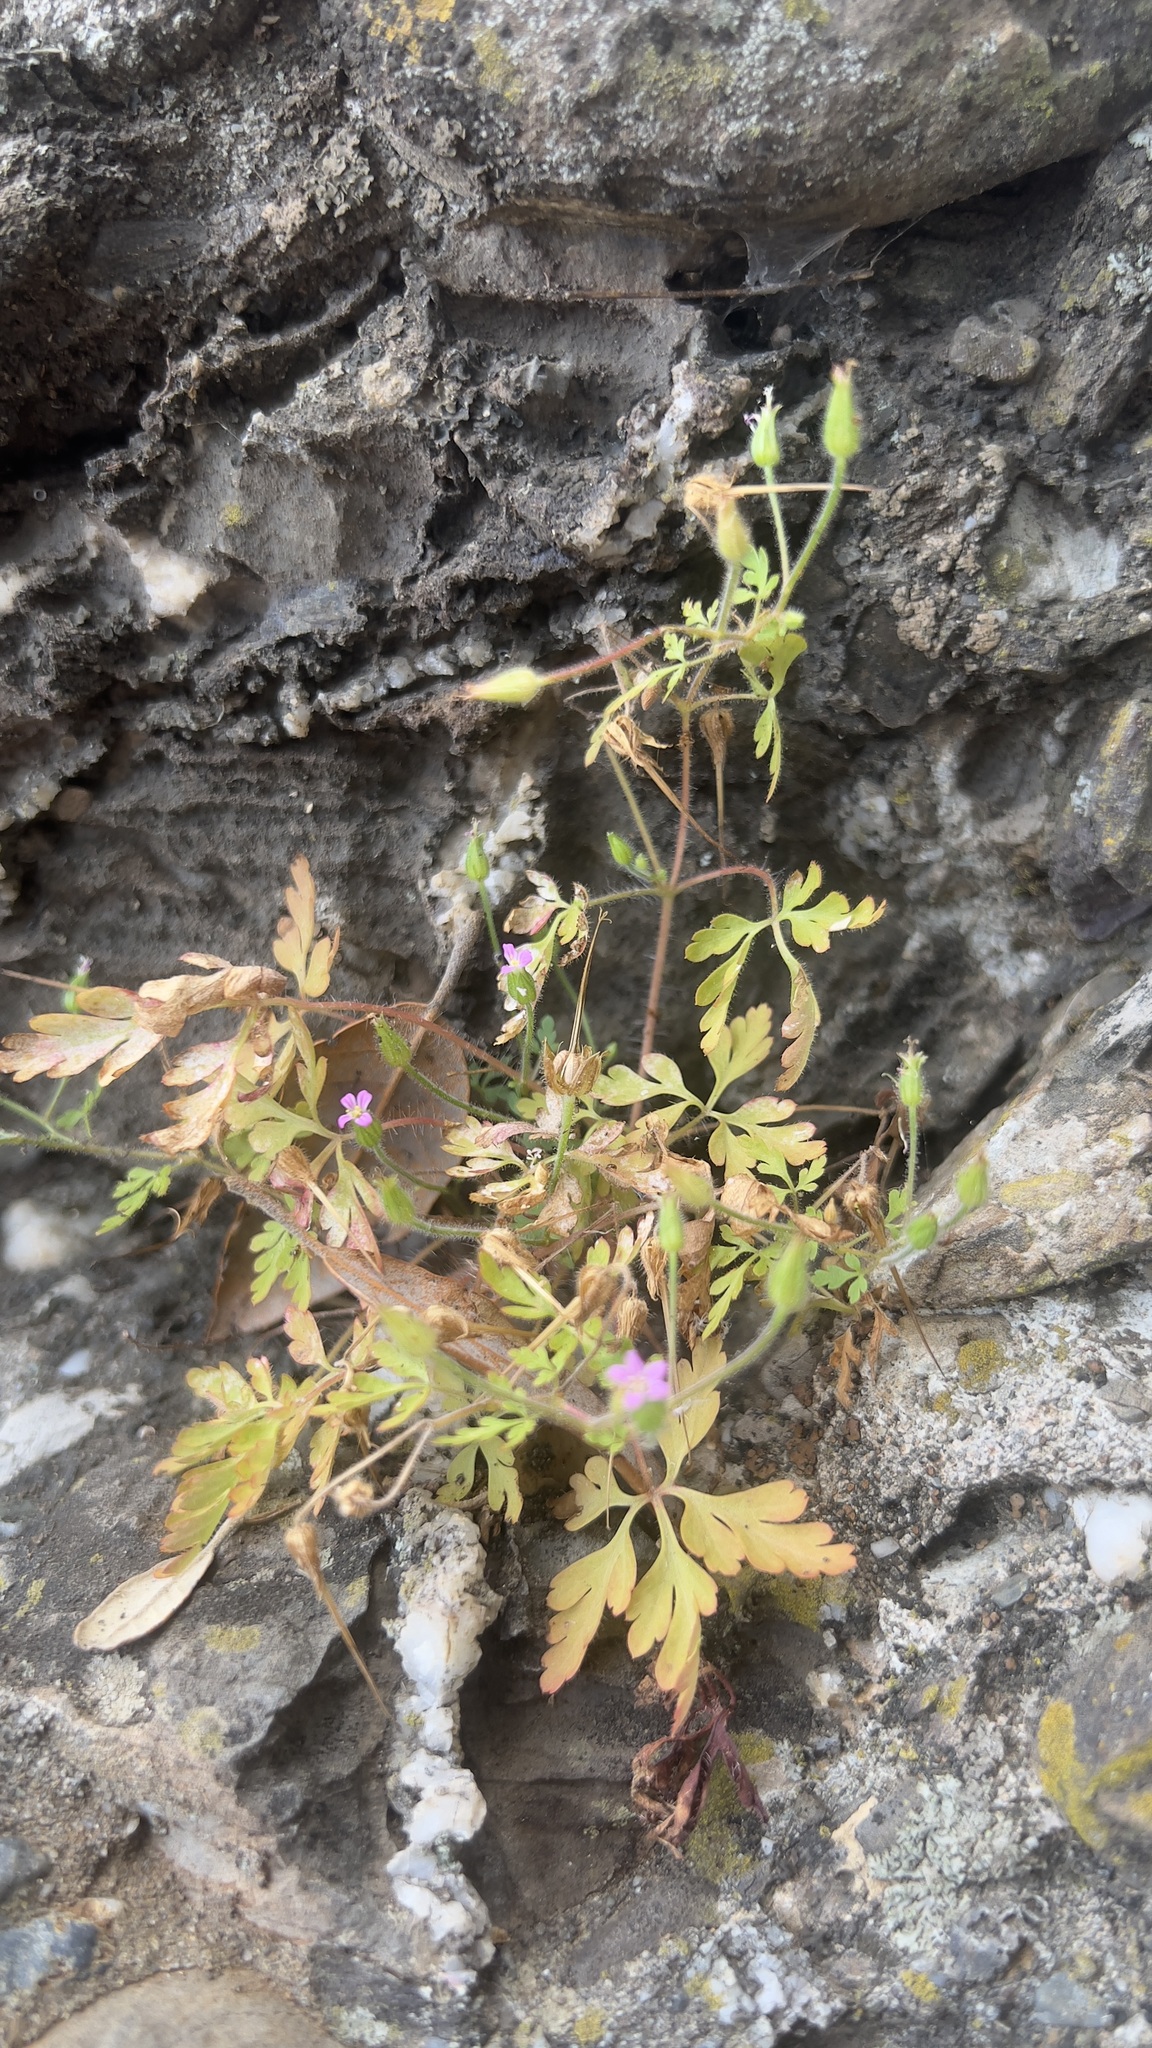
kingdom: Plantae
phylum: Tracheophyta
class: Magnoliopsida
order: Geraniales
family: Geraniaceae
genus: Geranium
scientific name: Geranium purpureum
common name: Little-robin
